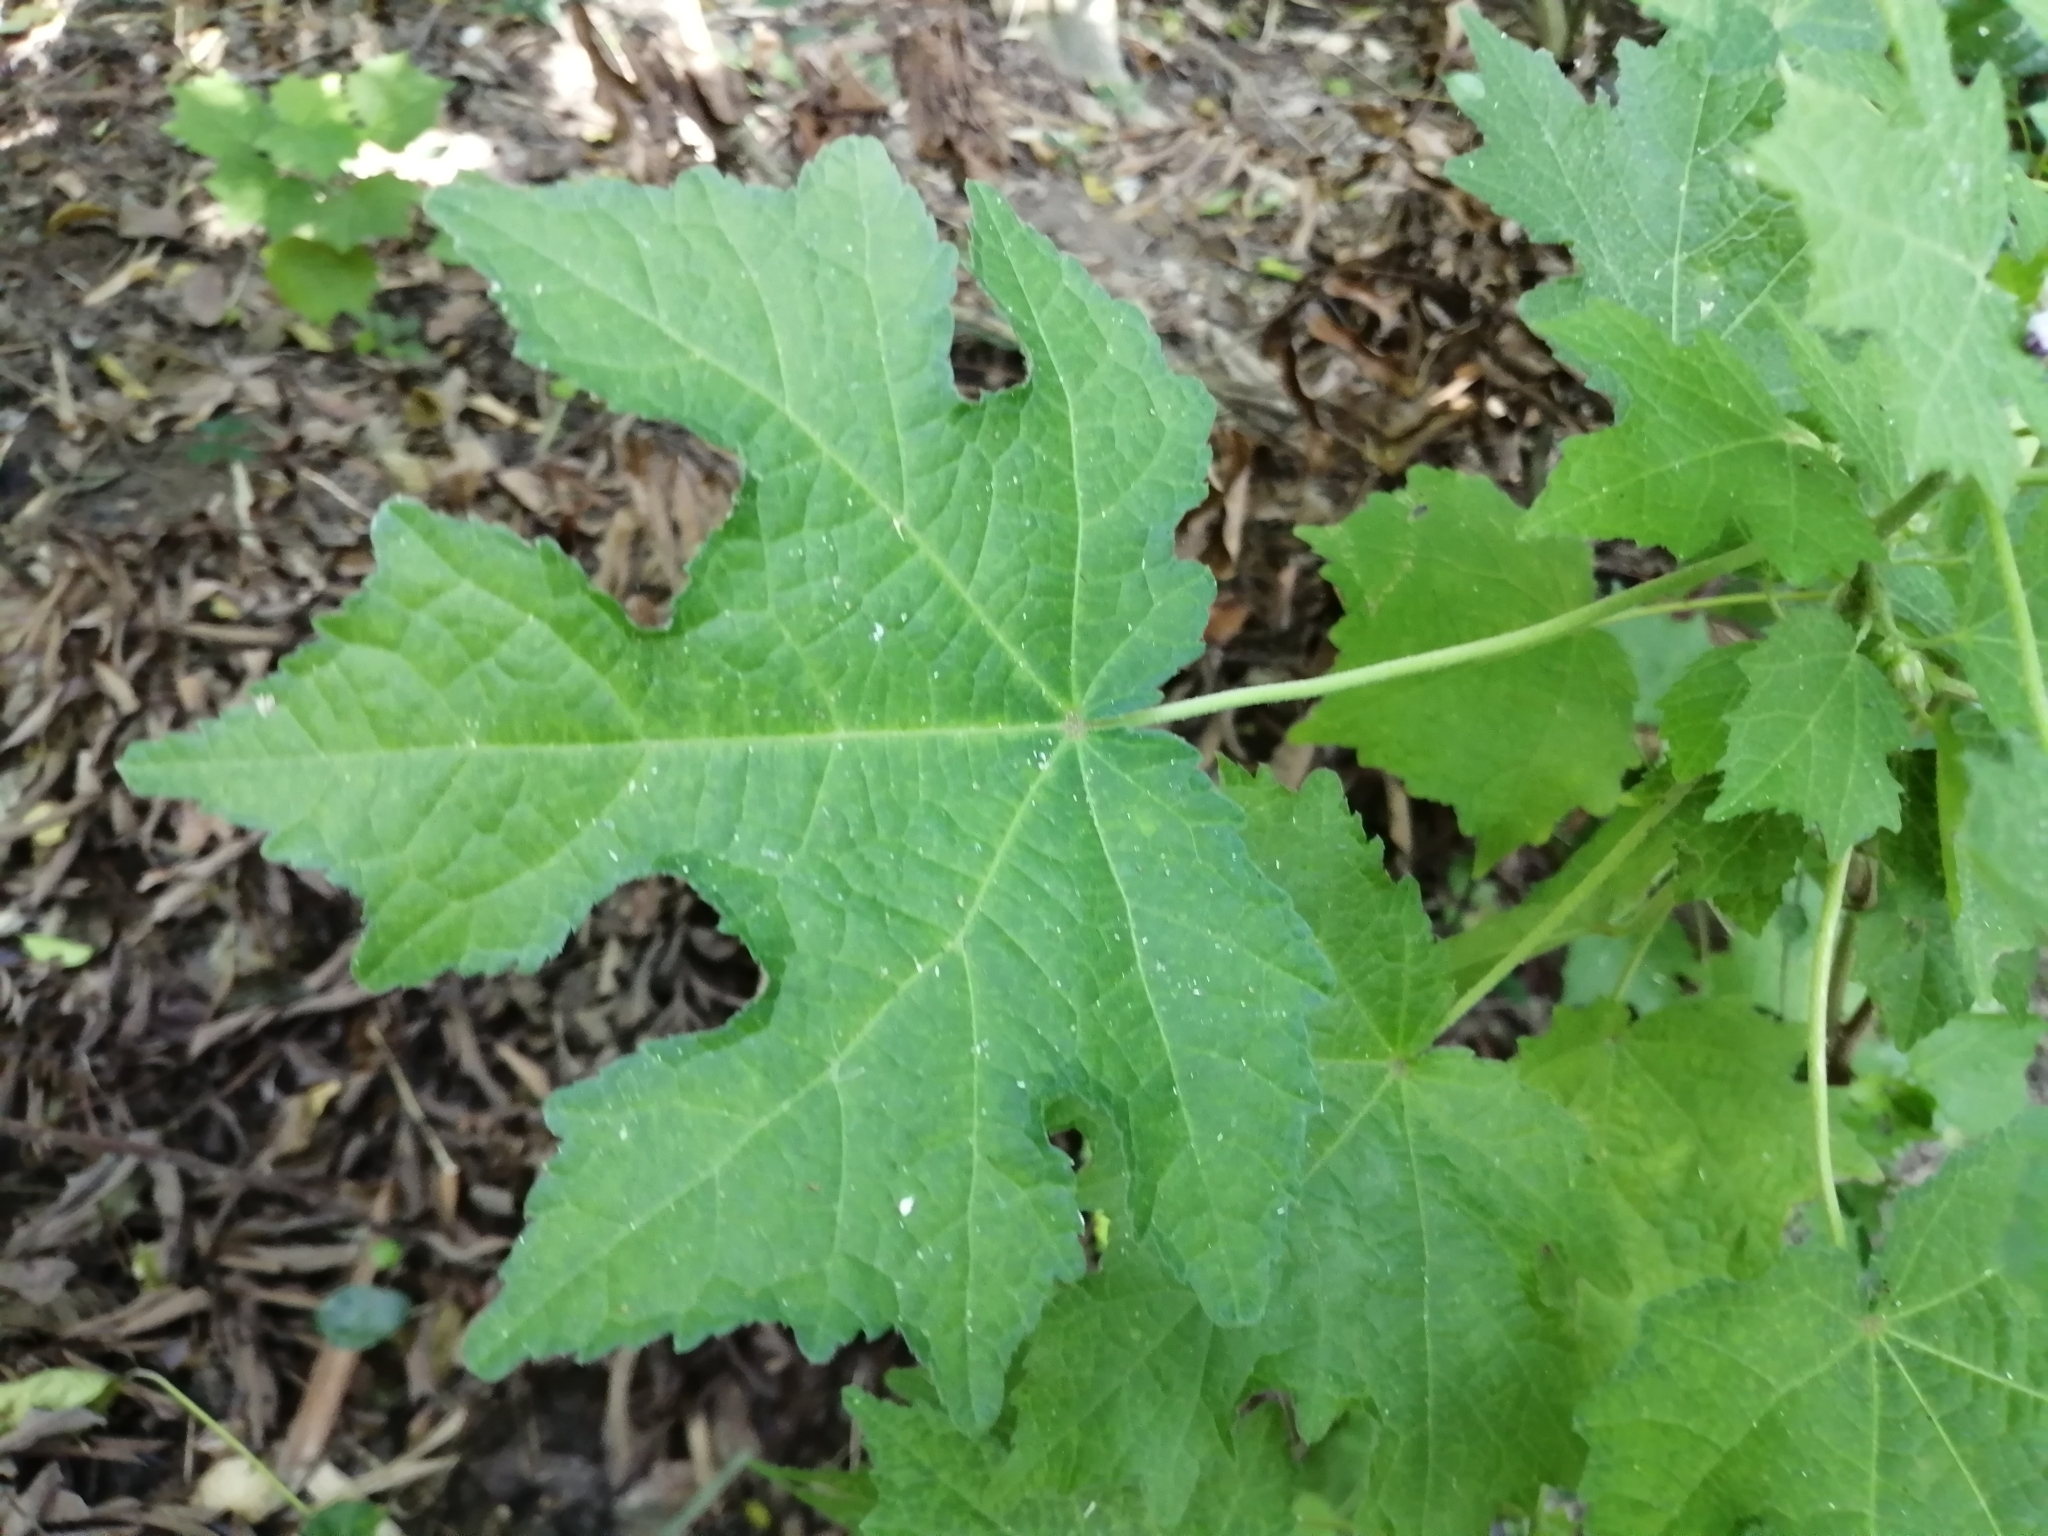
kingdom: Plantae
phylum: Tracheophyta
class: Magnoliopsida
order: Malvales
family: Malvaceae
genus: Urena
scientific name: Urena lobata
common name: Caesarweed
